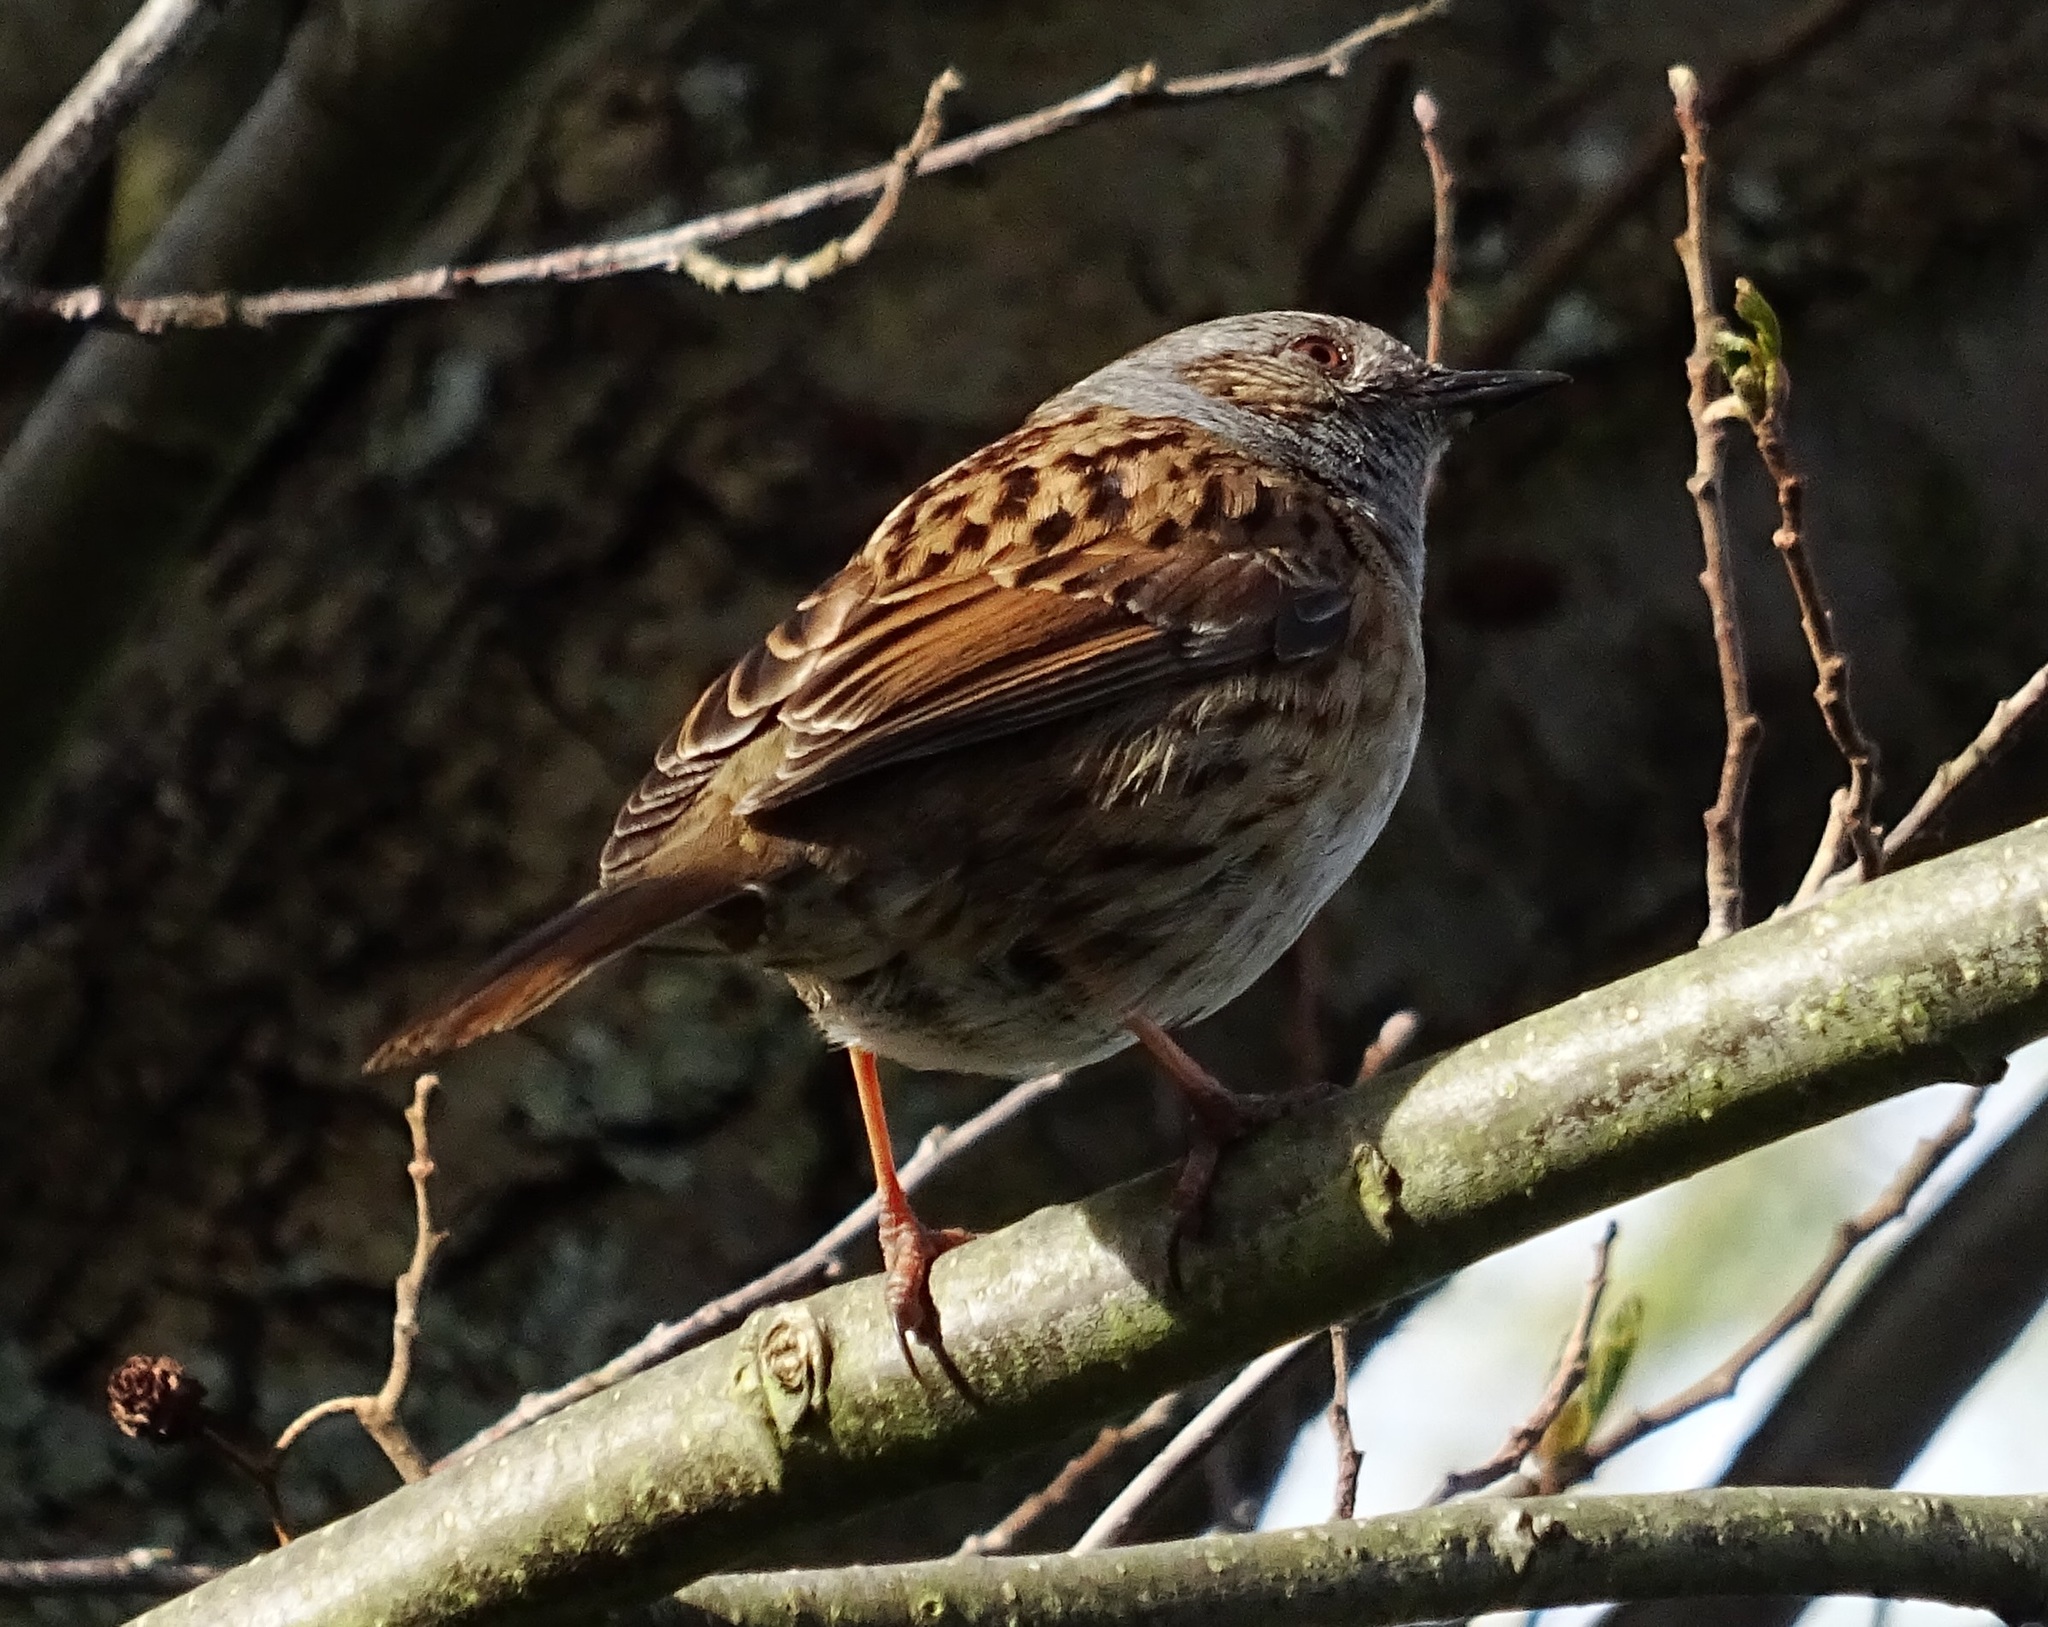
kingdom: Animalia
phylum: Chordata
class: Aves
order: Passeriformes
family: Prunellidae
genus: Prunella
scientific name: Prunella modularis
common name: Dunnock
